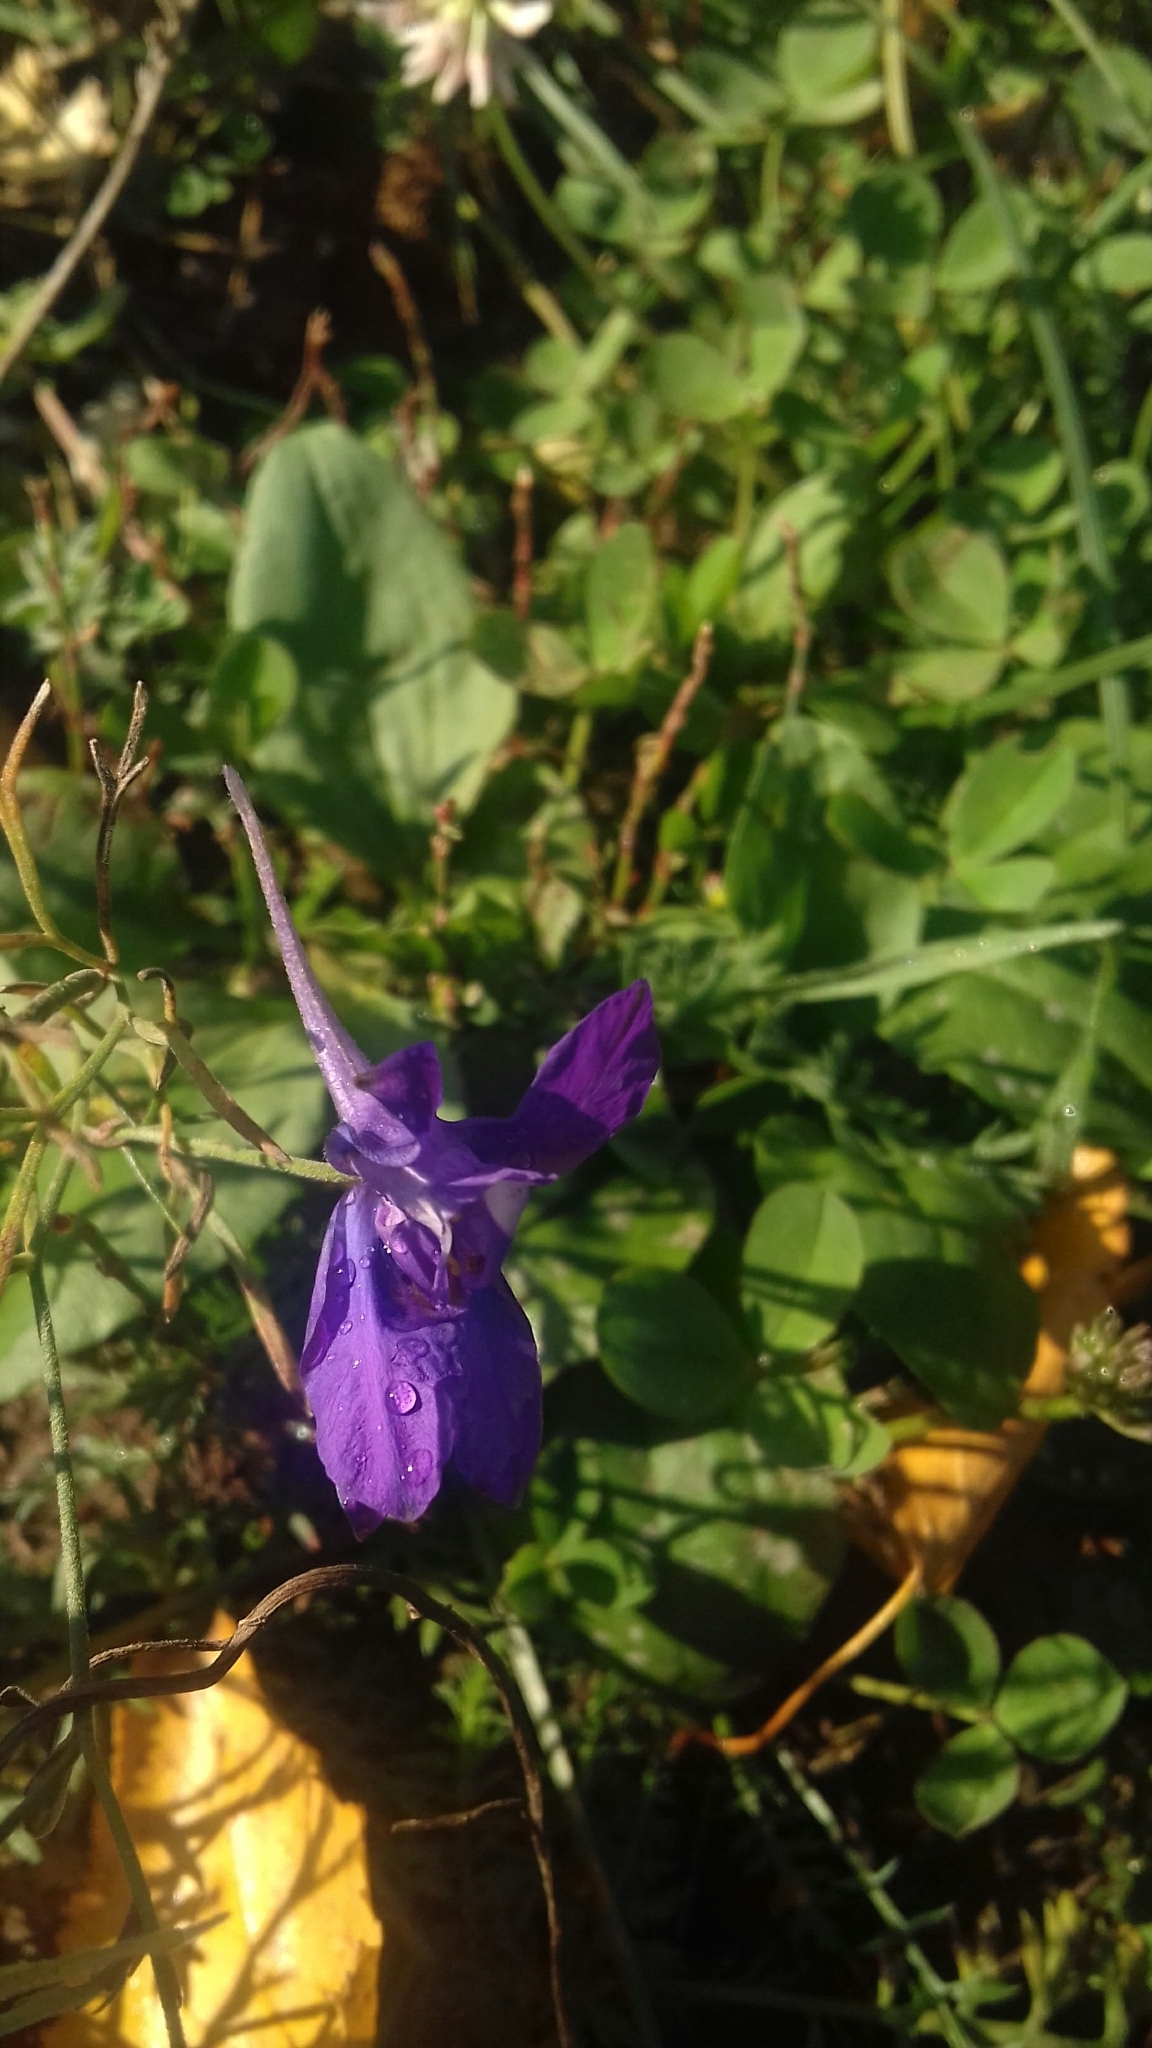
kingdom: Plantae
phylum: Tracheophyta
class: Magnoliopsida
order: Ranunculales
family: Ranunculaceae
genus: Delphinium
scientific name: Delphinium consolida
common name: Branching larkspur
